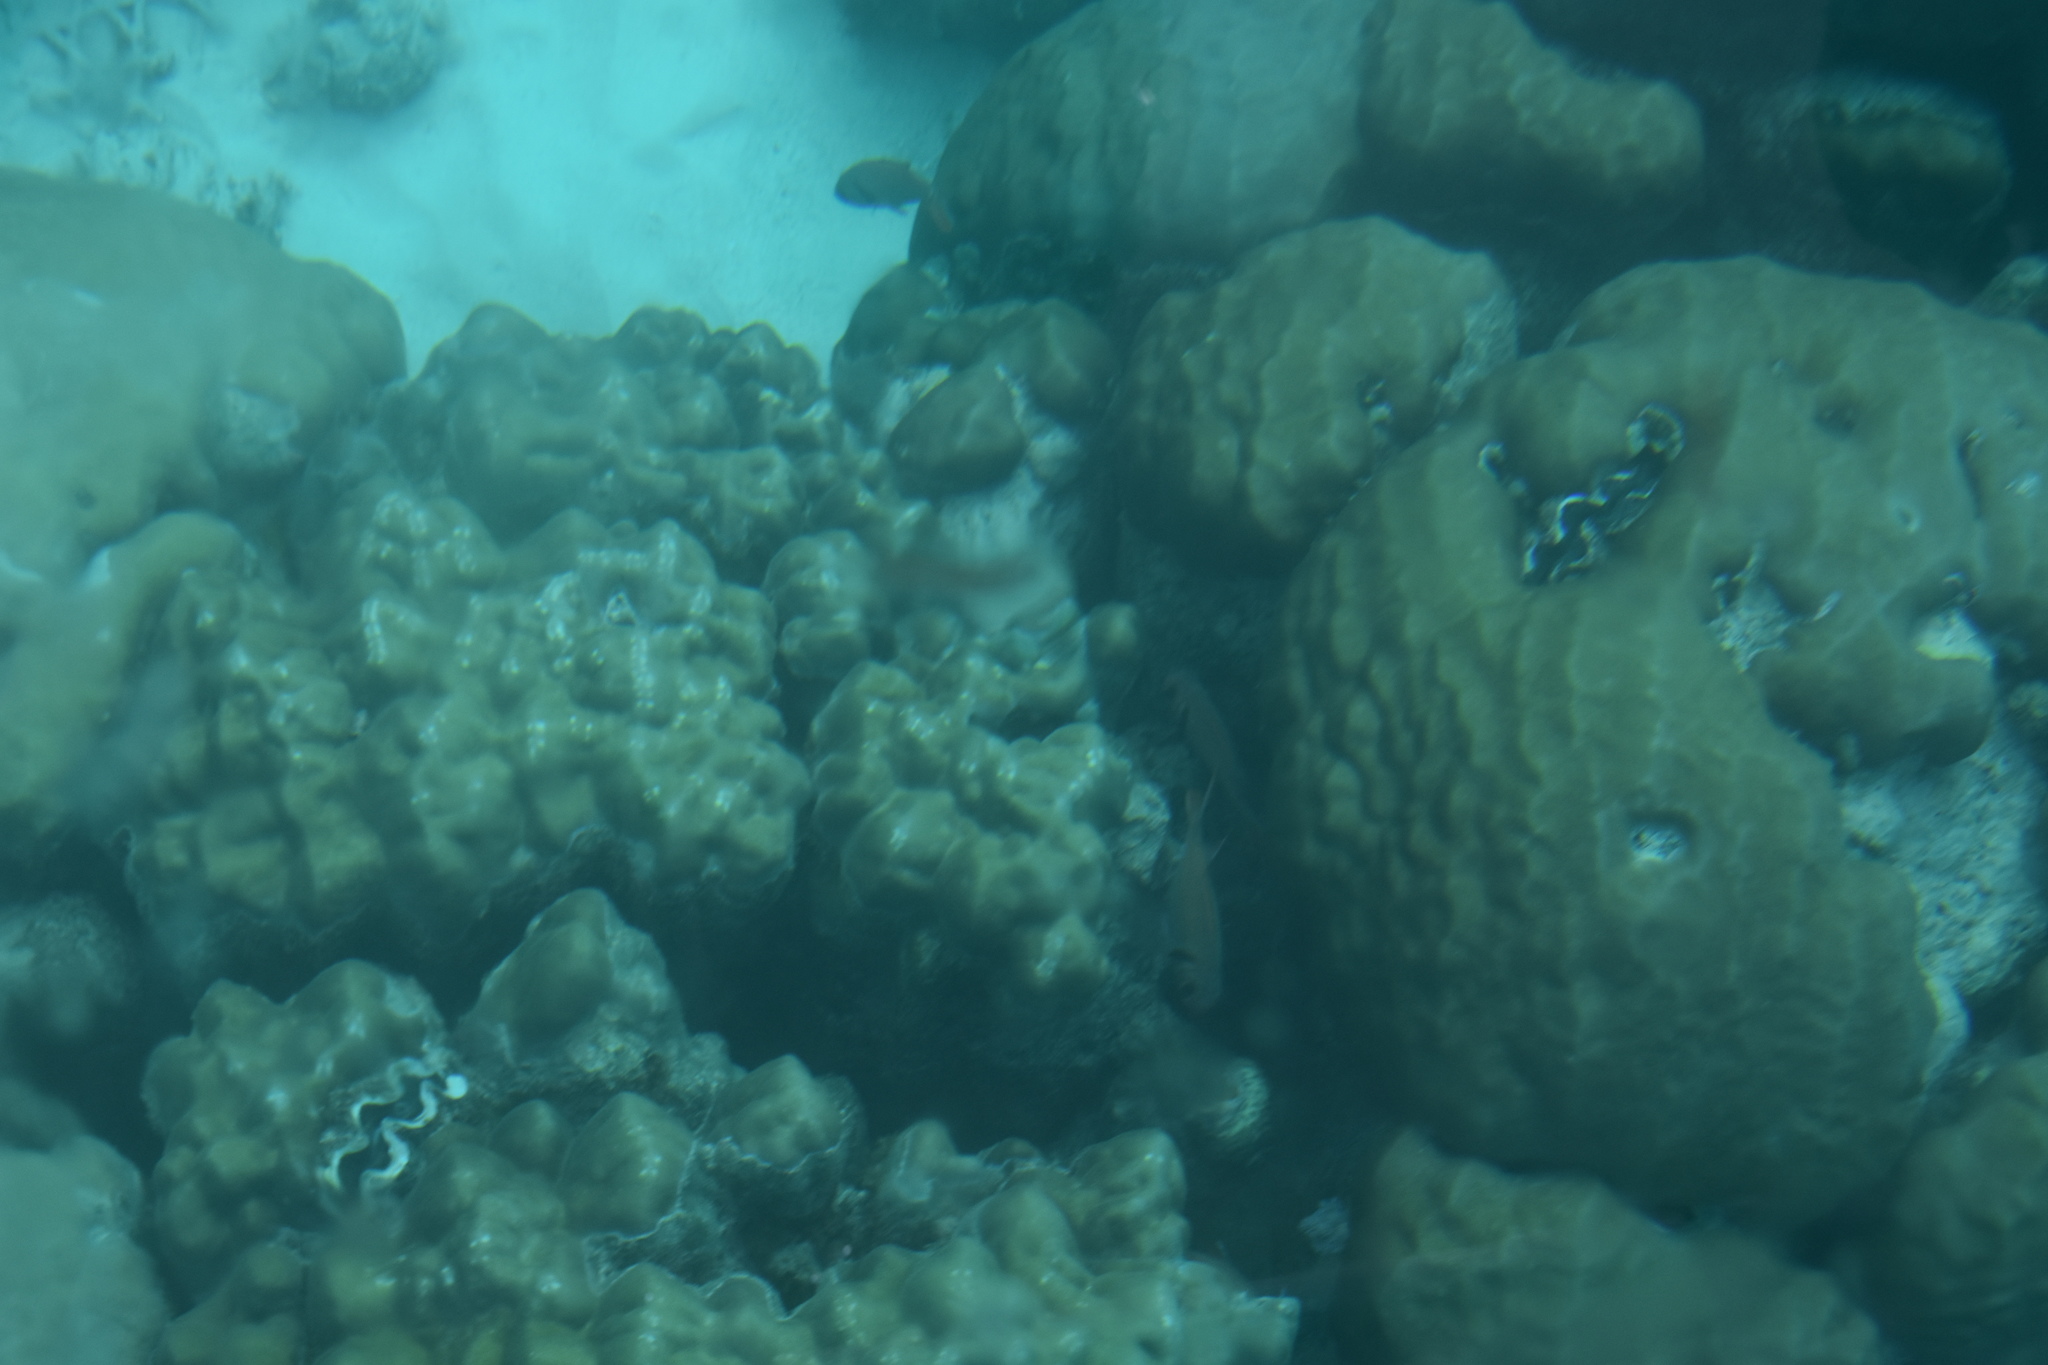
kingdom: Animalia
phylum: Mollusca
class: Bivalvia
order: Cardiida
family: Cardiidae
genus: Tridacna
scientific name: Tridacna maxima
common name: Small giant clam
